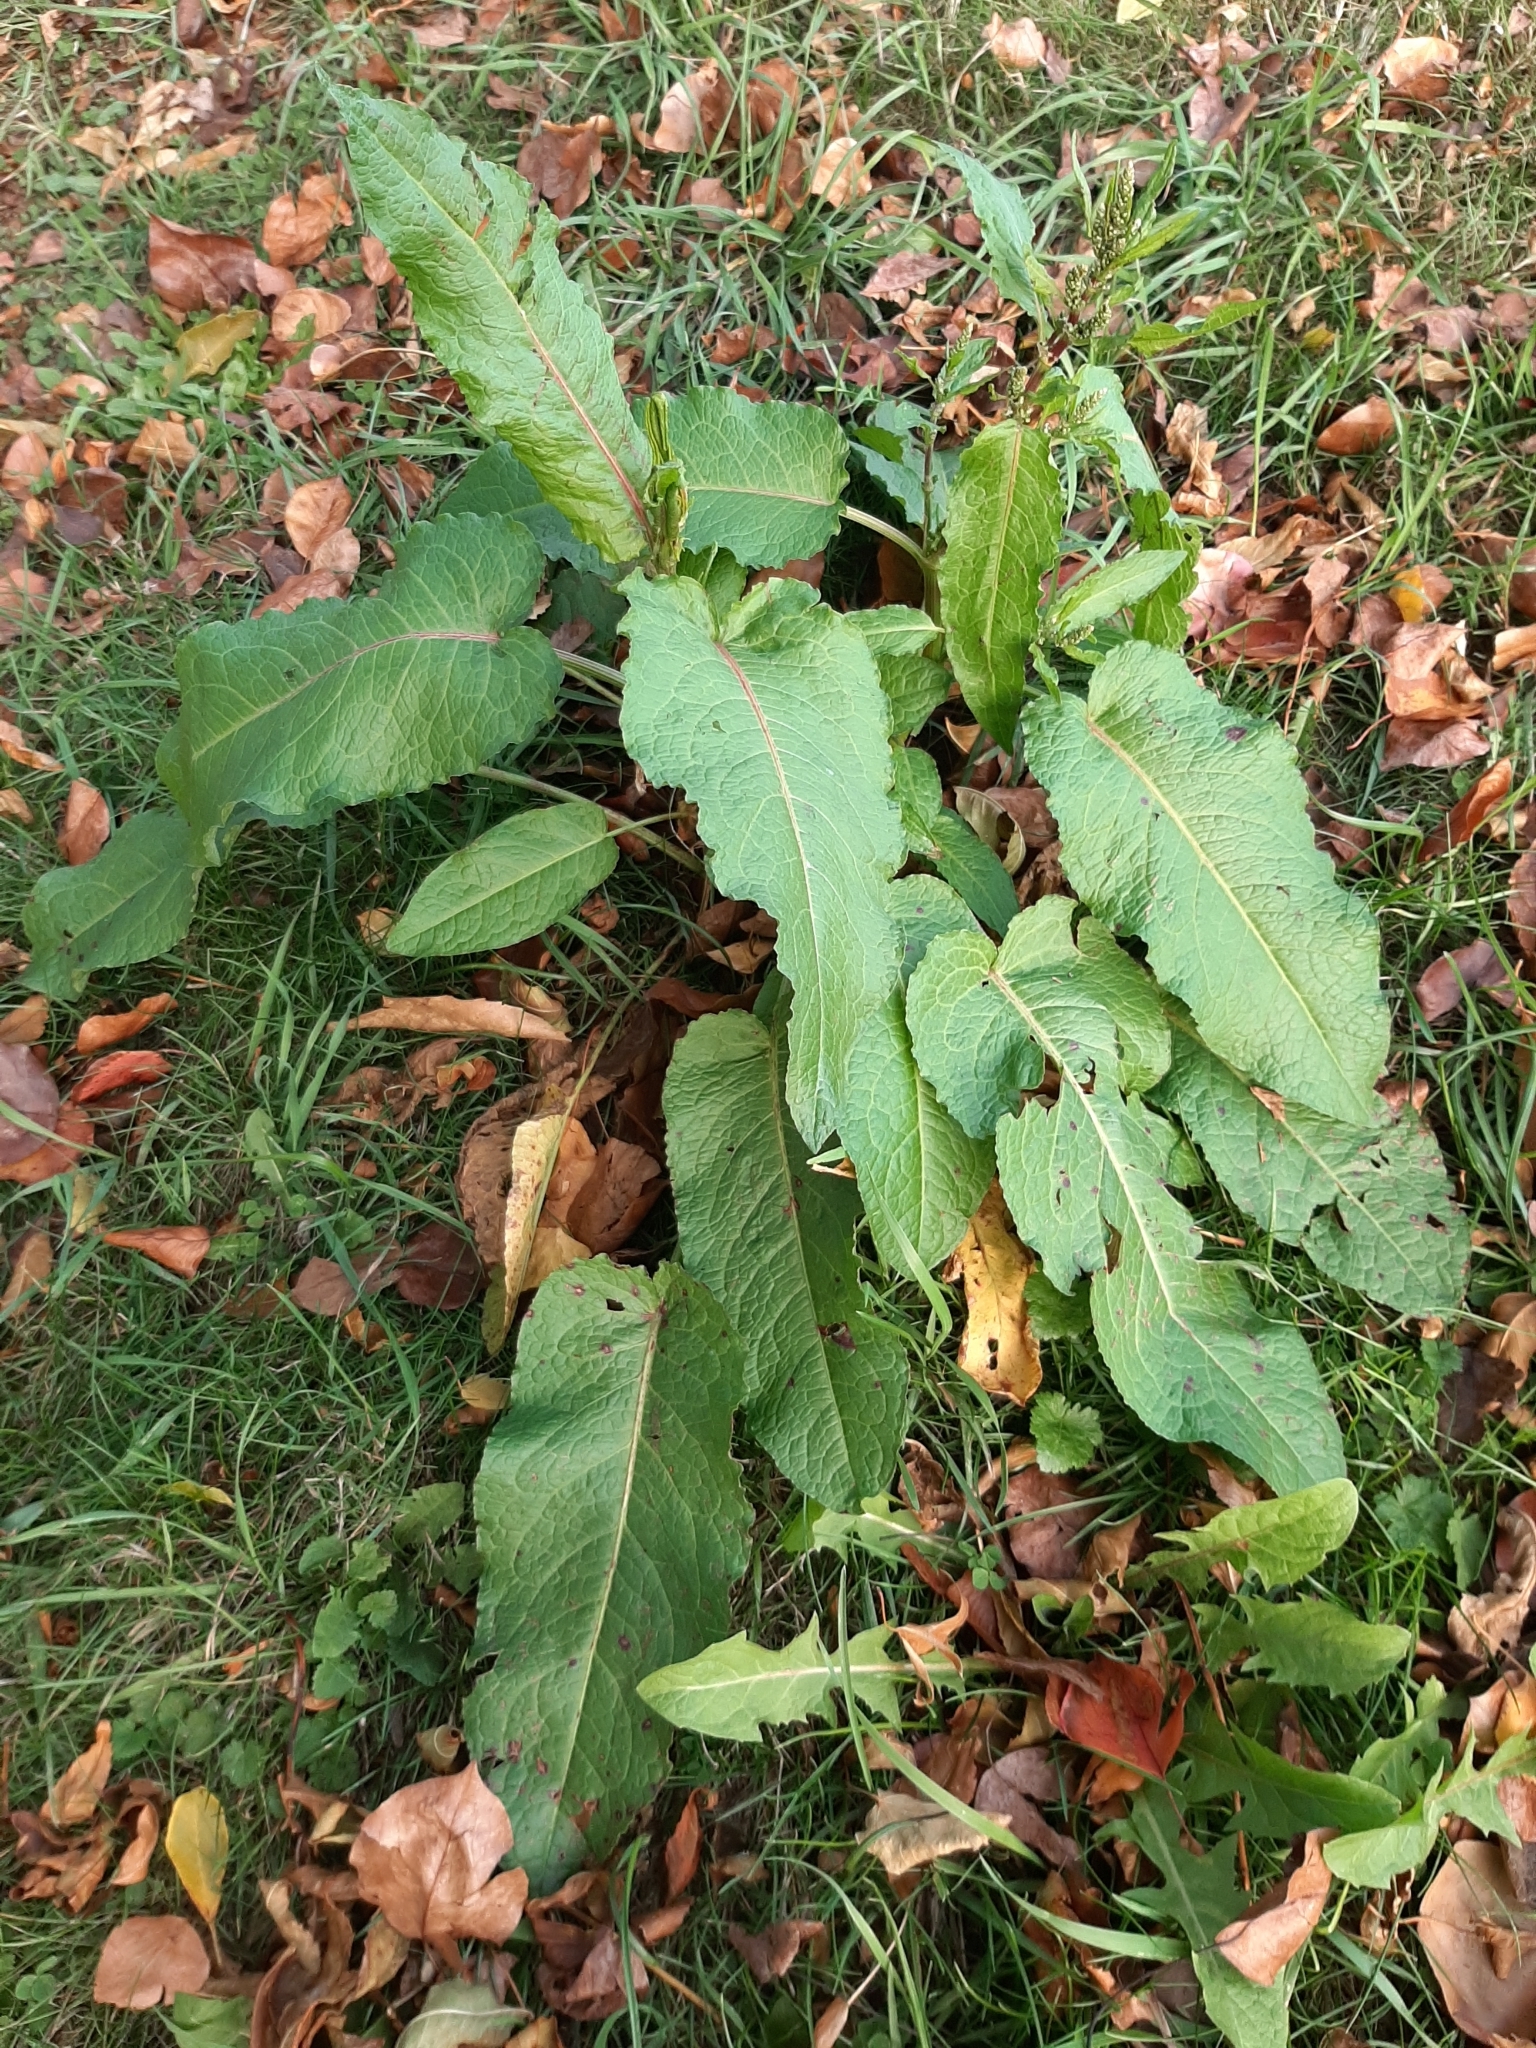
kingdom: Plantae
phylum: Tracheophyta
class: Magnoliopsida
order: Caryophyllales
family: Polygonaceae
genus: Rumex
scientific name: Rumex obtusifolius
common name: Bitter dock
